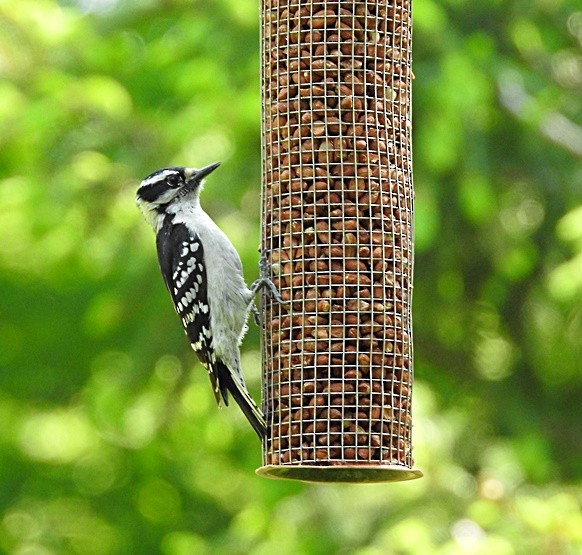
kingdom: Animalia
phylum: Chordata
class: Aves
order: Piciformes
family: Picidae
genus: Dryobates
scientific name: Dryobates pubescens
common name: Downy woodpecker
